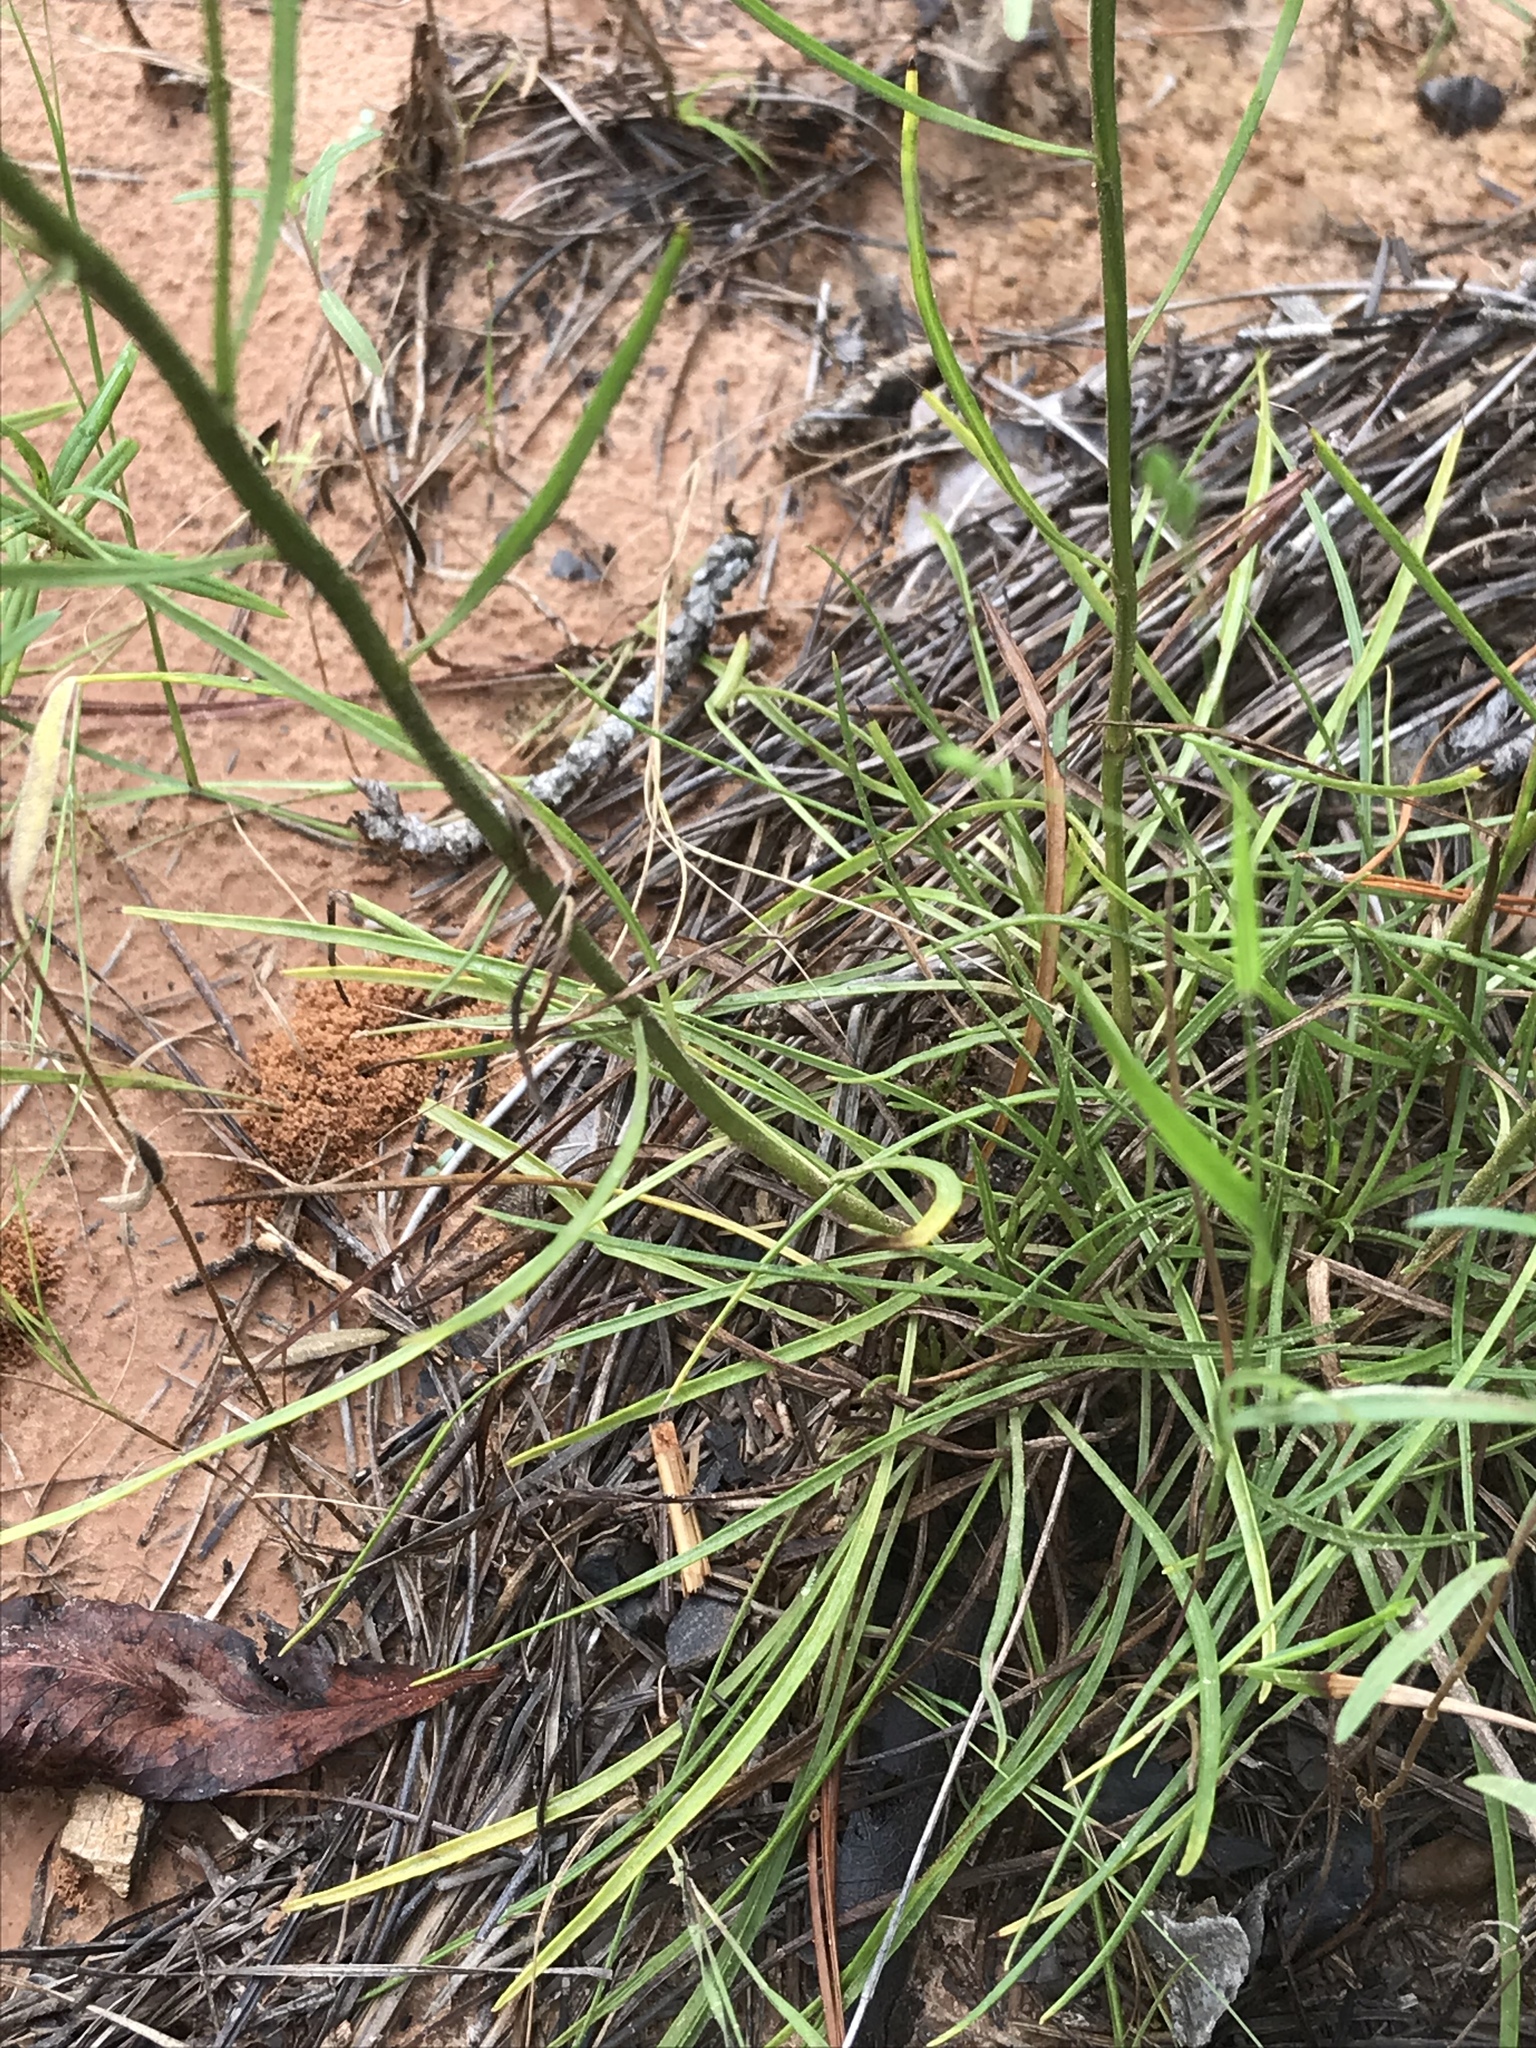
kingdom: Plantae
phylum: Tracheophyta
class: Magnoliopsida
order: Asterales
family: Asteraceae
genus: Bigelowia
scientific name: Bigelowia nuttallii
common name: Nuttall's rayless-goldenrod
